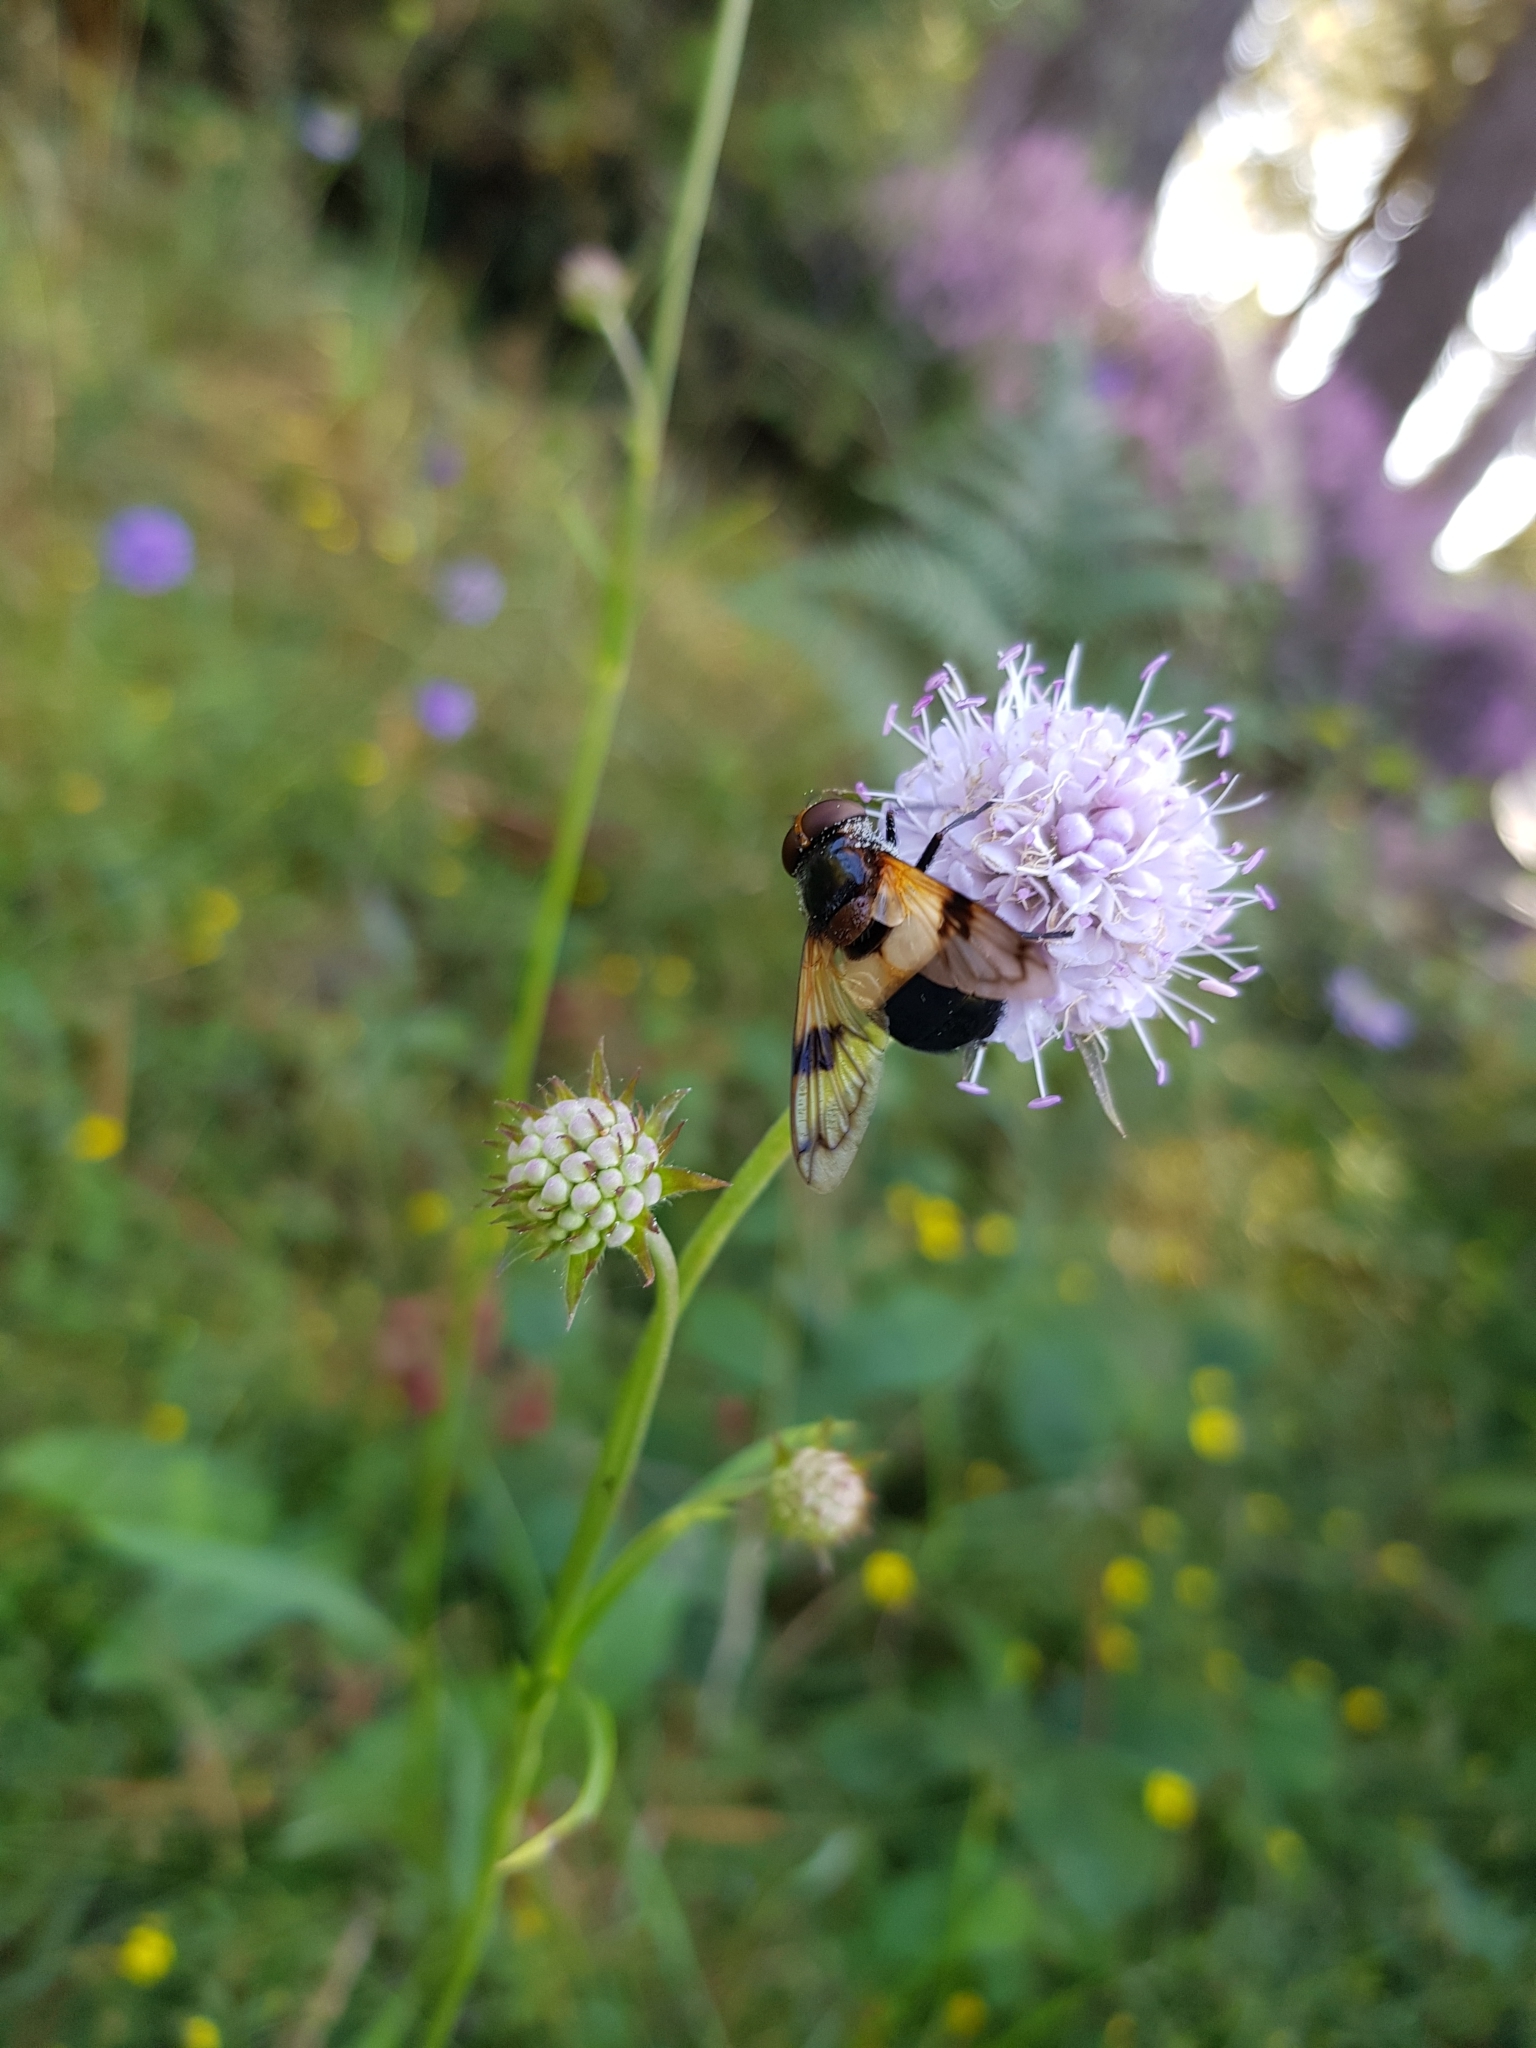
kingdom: Animalia
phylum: Arthropoda
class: Insecta
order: Diptera
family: Syrphidae
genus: Volucella
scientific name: Volucella pellucens
